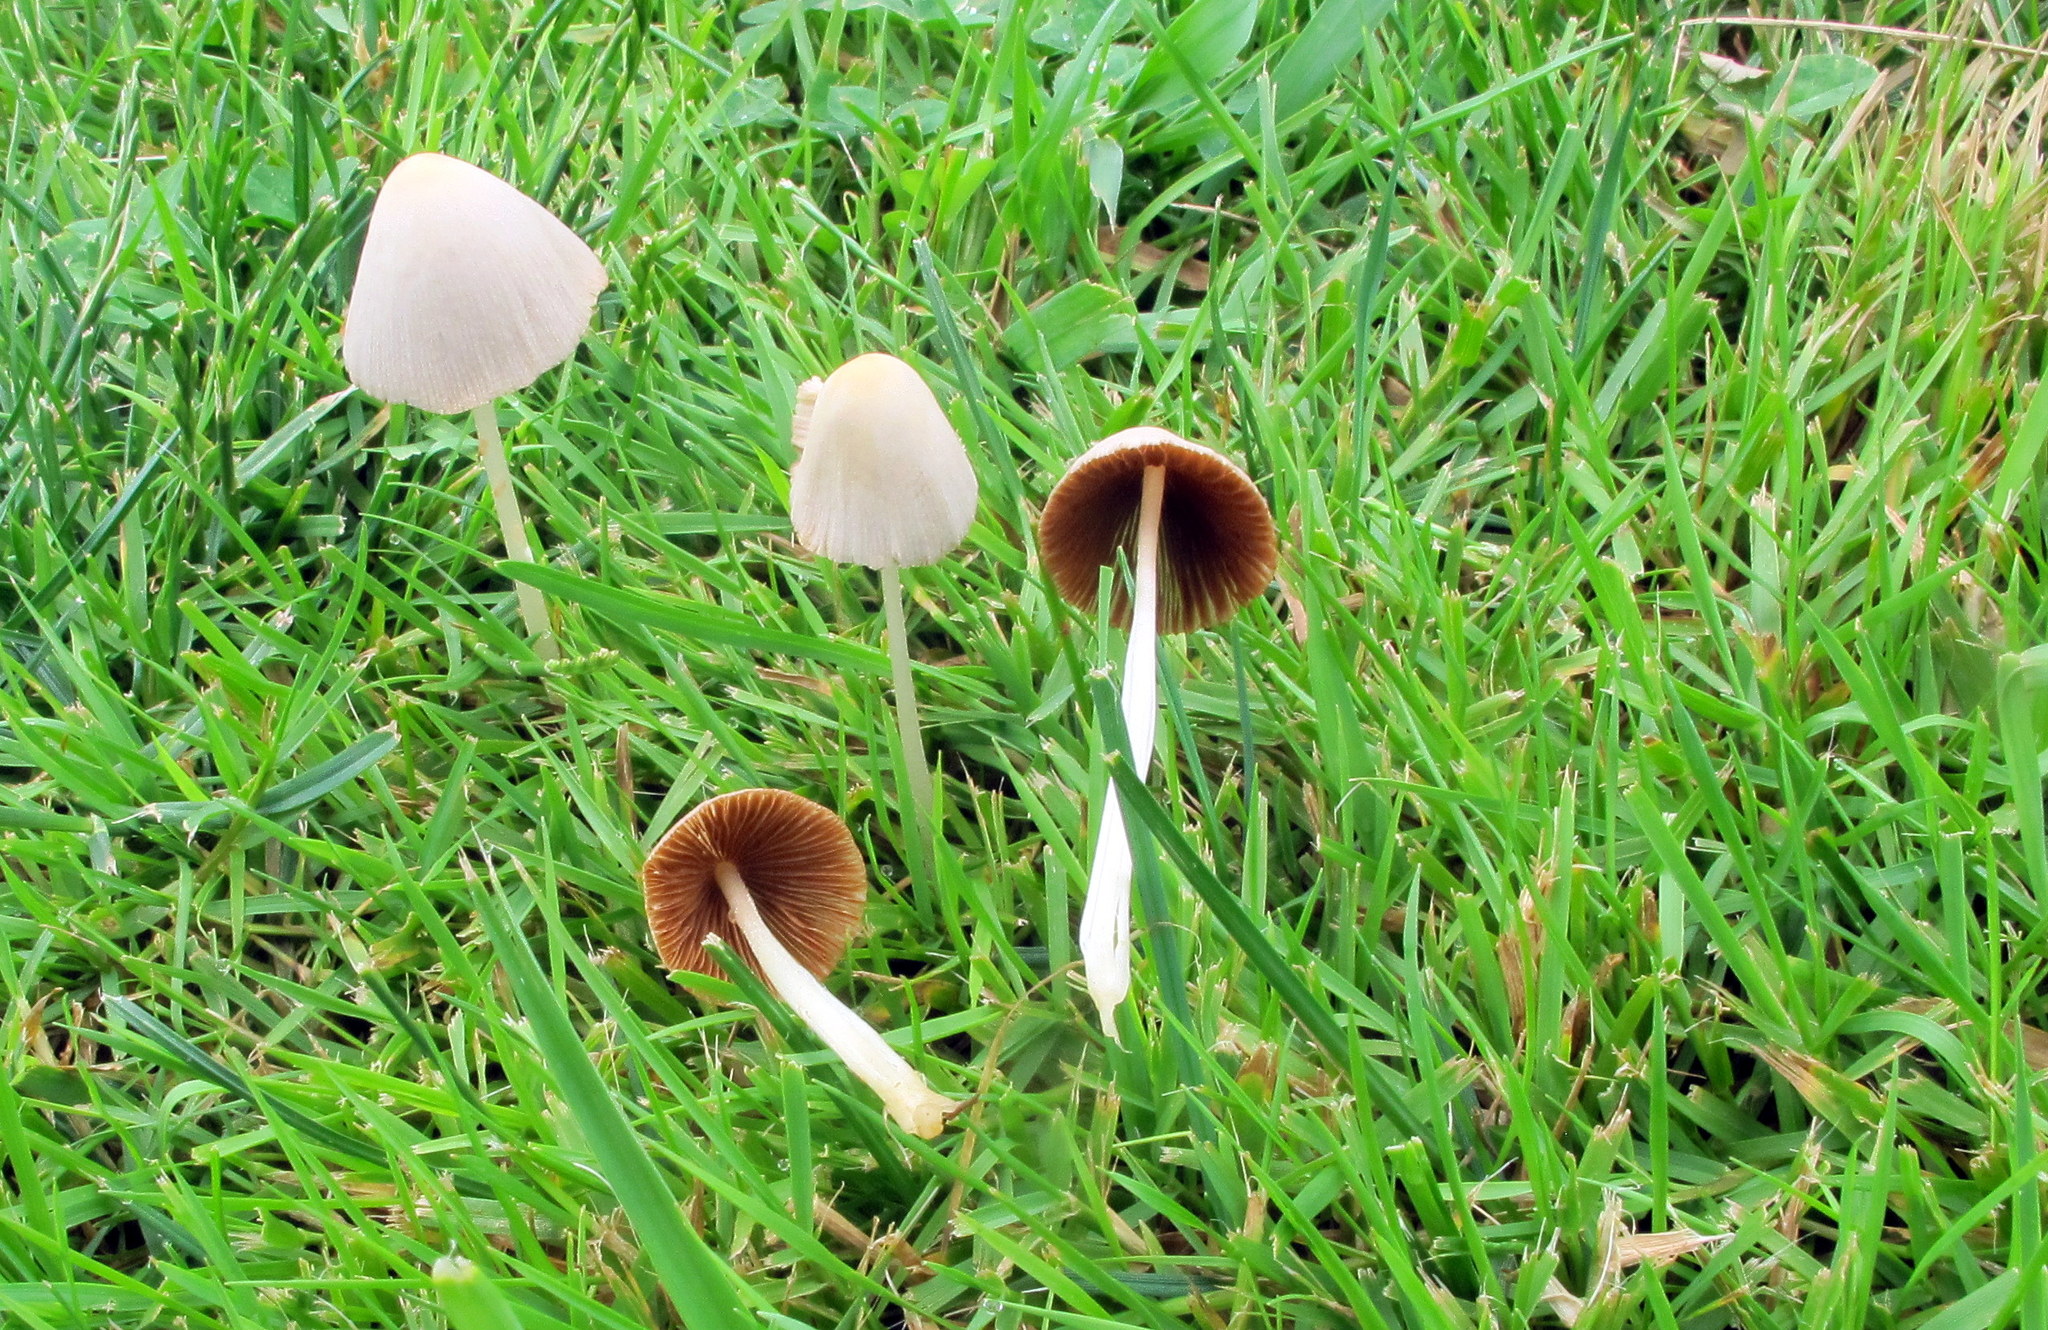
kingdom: Fungi
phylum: Basidiomycota
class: Agaricomycetes
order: Agaricales
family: Bolbitiaceae
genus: Conocybe
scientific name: Conocybe apala
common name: Milky conecap
